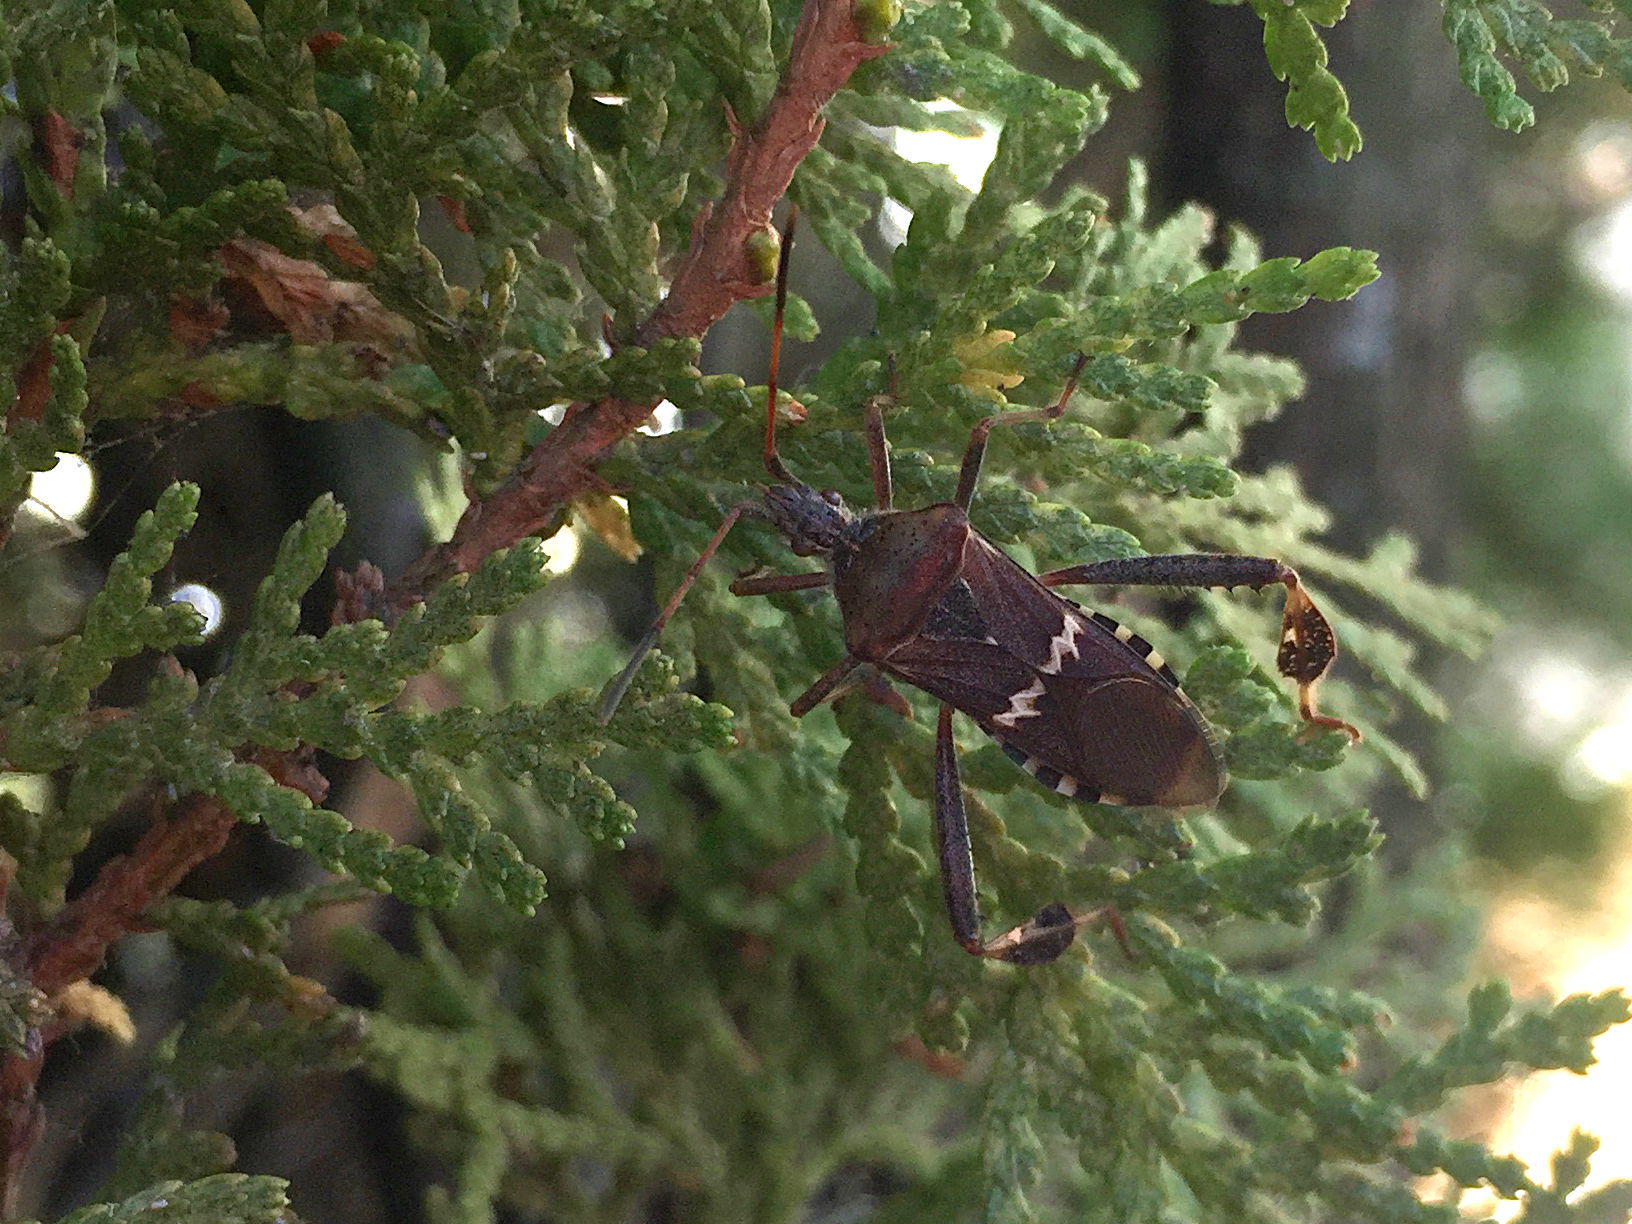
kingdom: Animalia
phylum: Arthropoda
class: Insecta
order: Hemiptera
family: Coreidae
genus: Leptoglossus
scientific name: Leptoglossus clypealis
